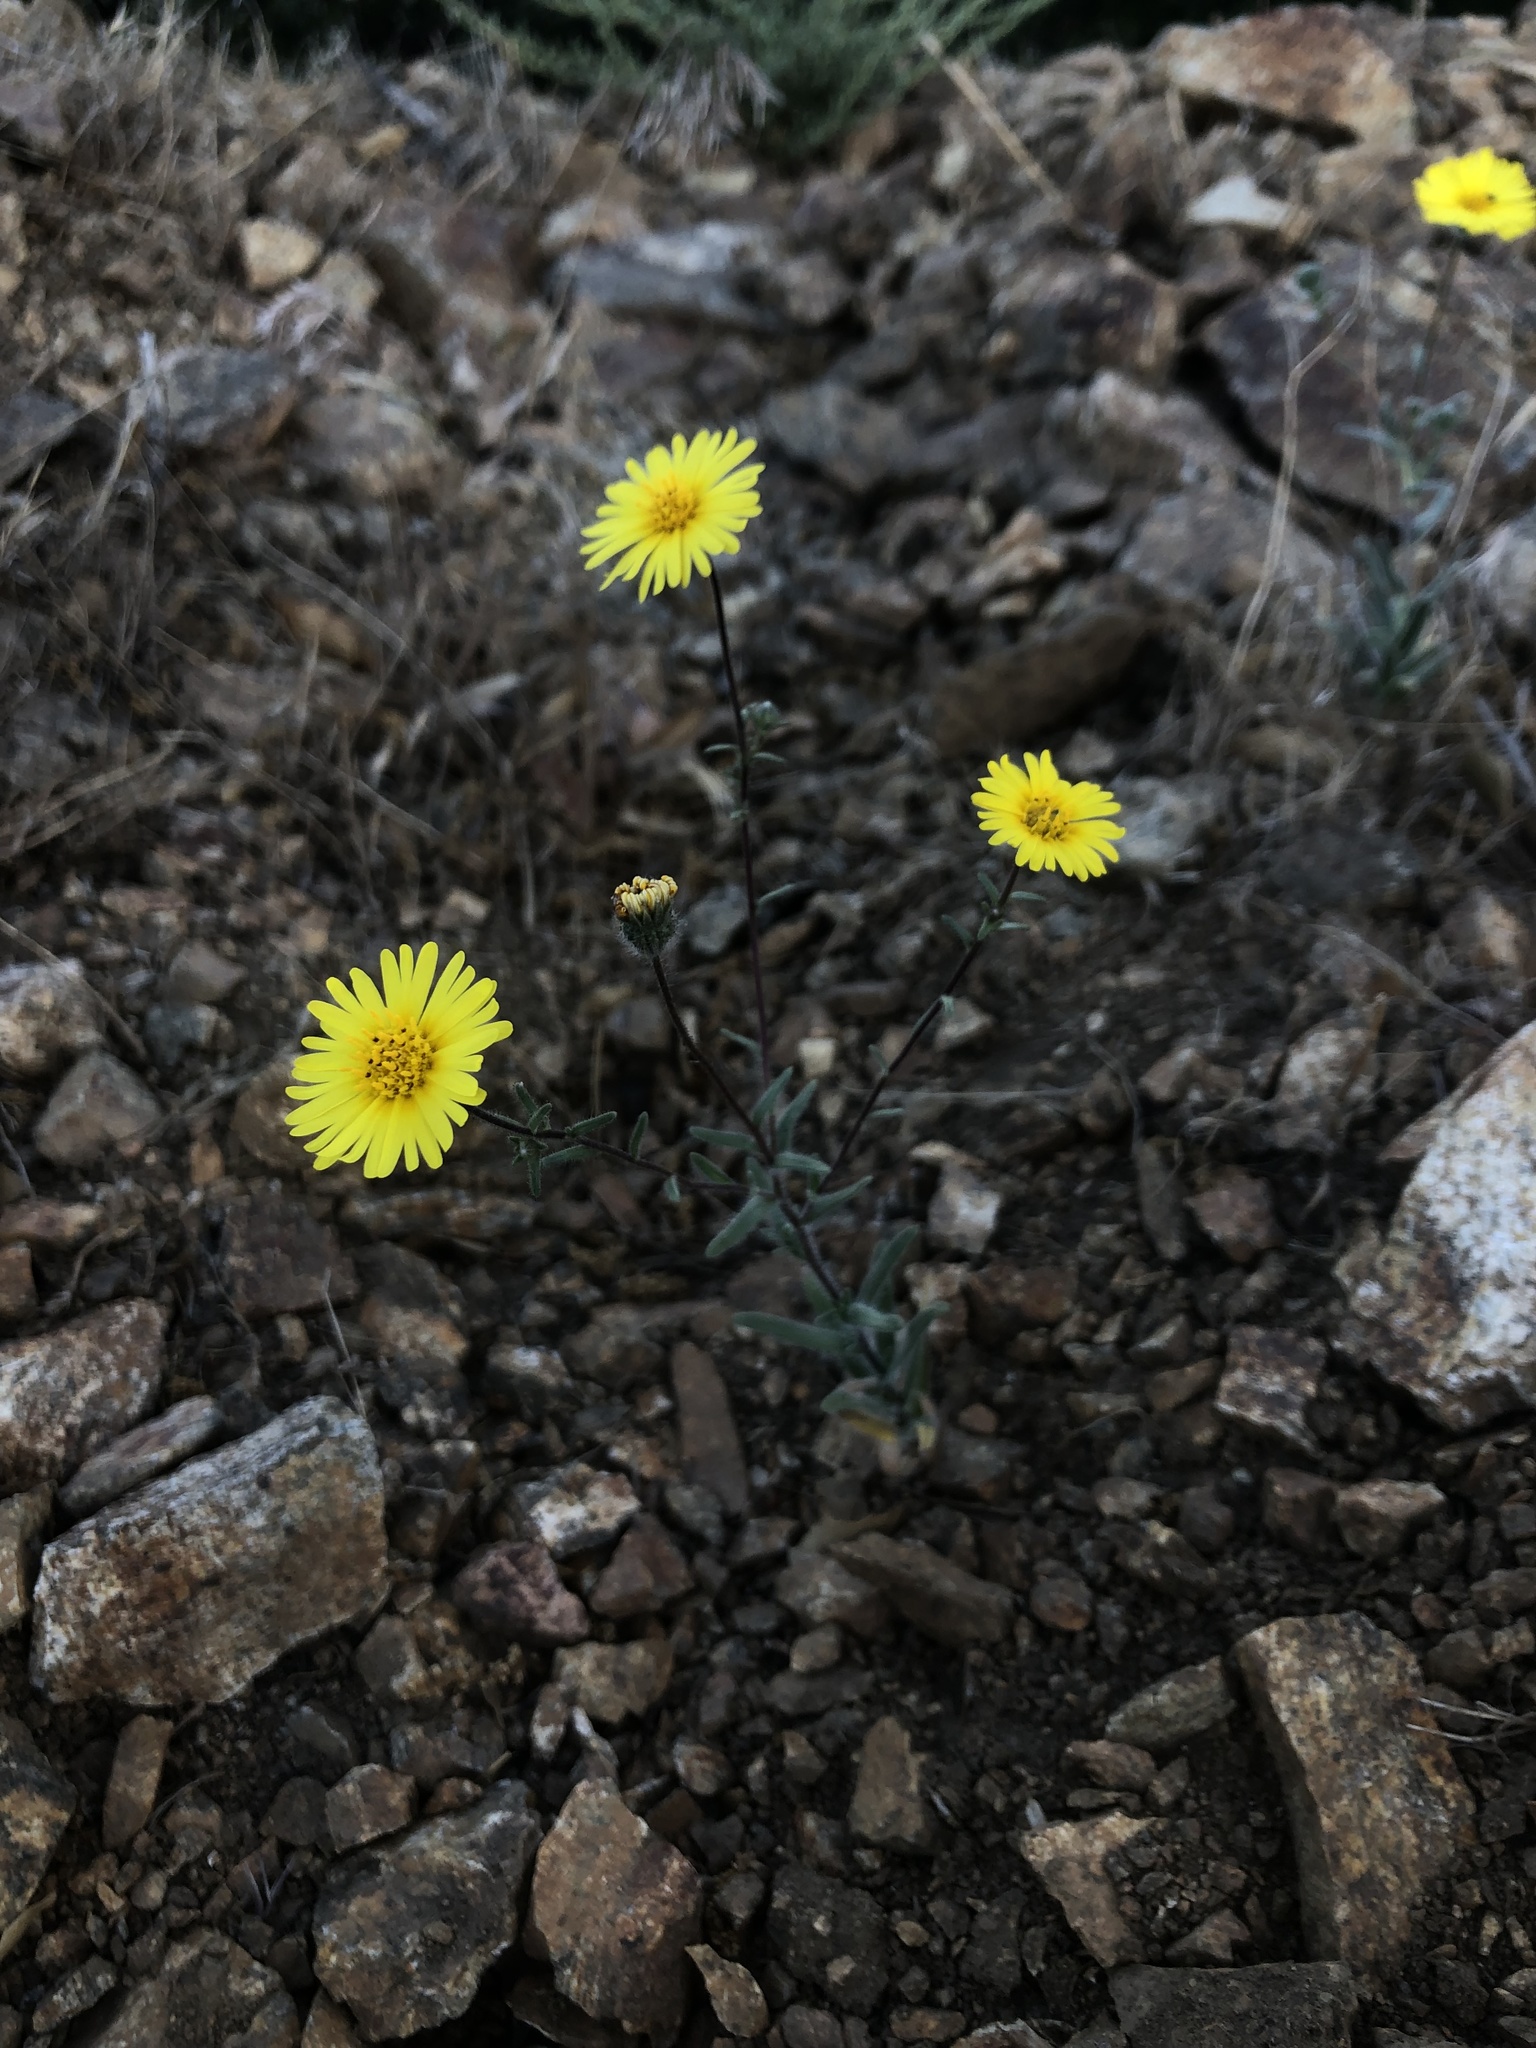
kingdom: Plantae
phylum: Tracheophyta
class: Magnoliopsida
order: Asterales
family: Asteraceae
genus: Madia
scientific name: Madia elegans
